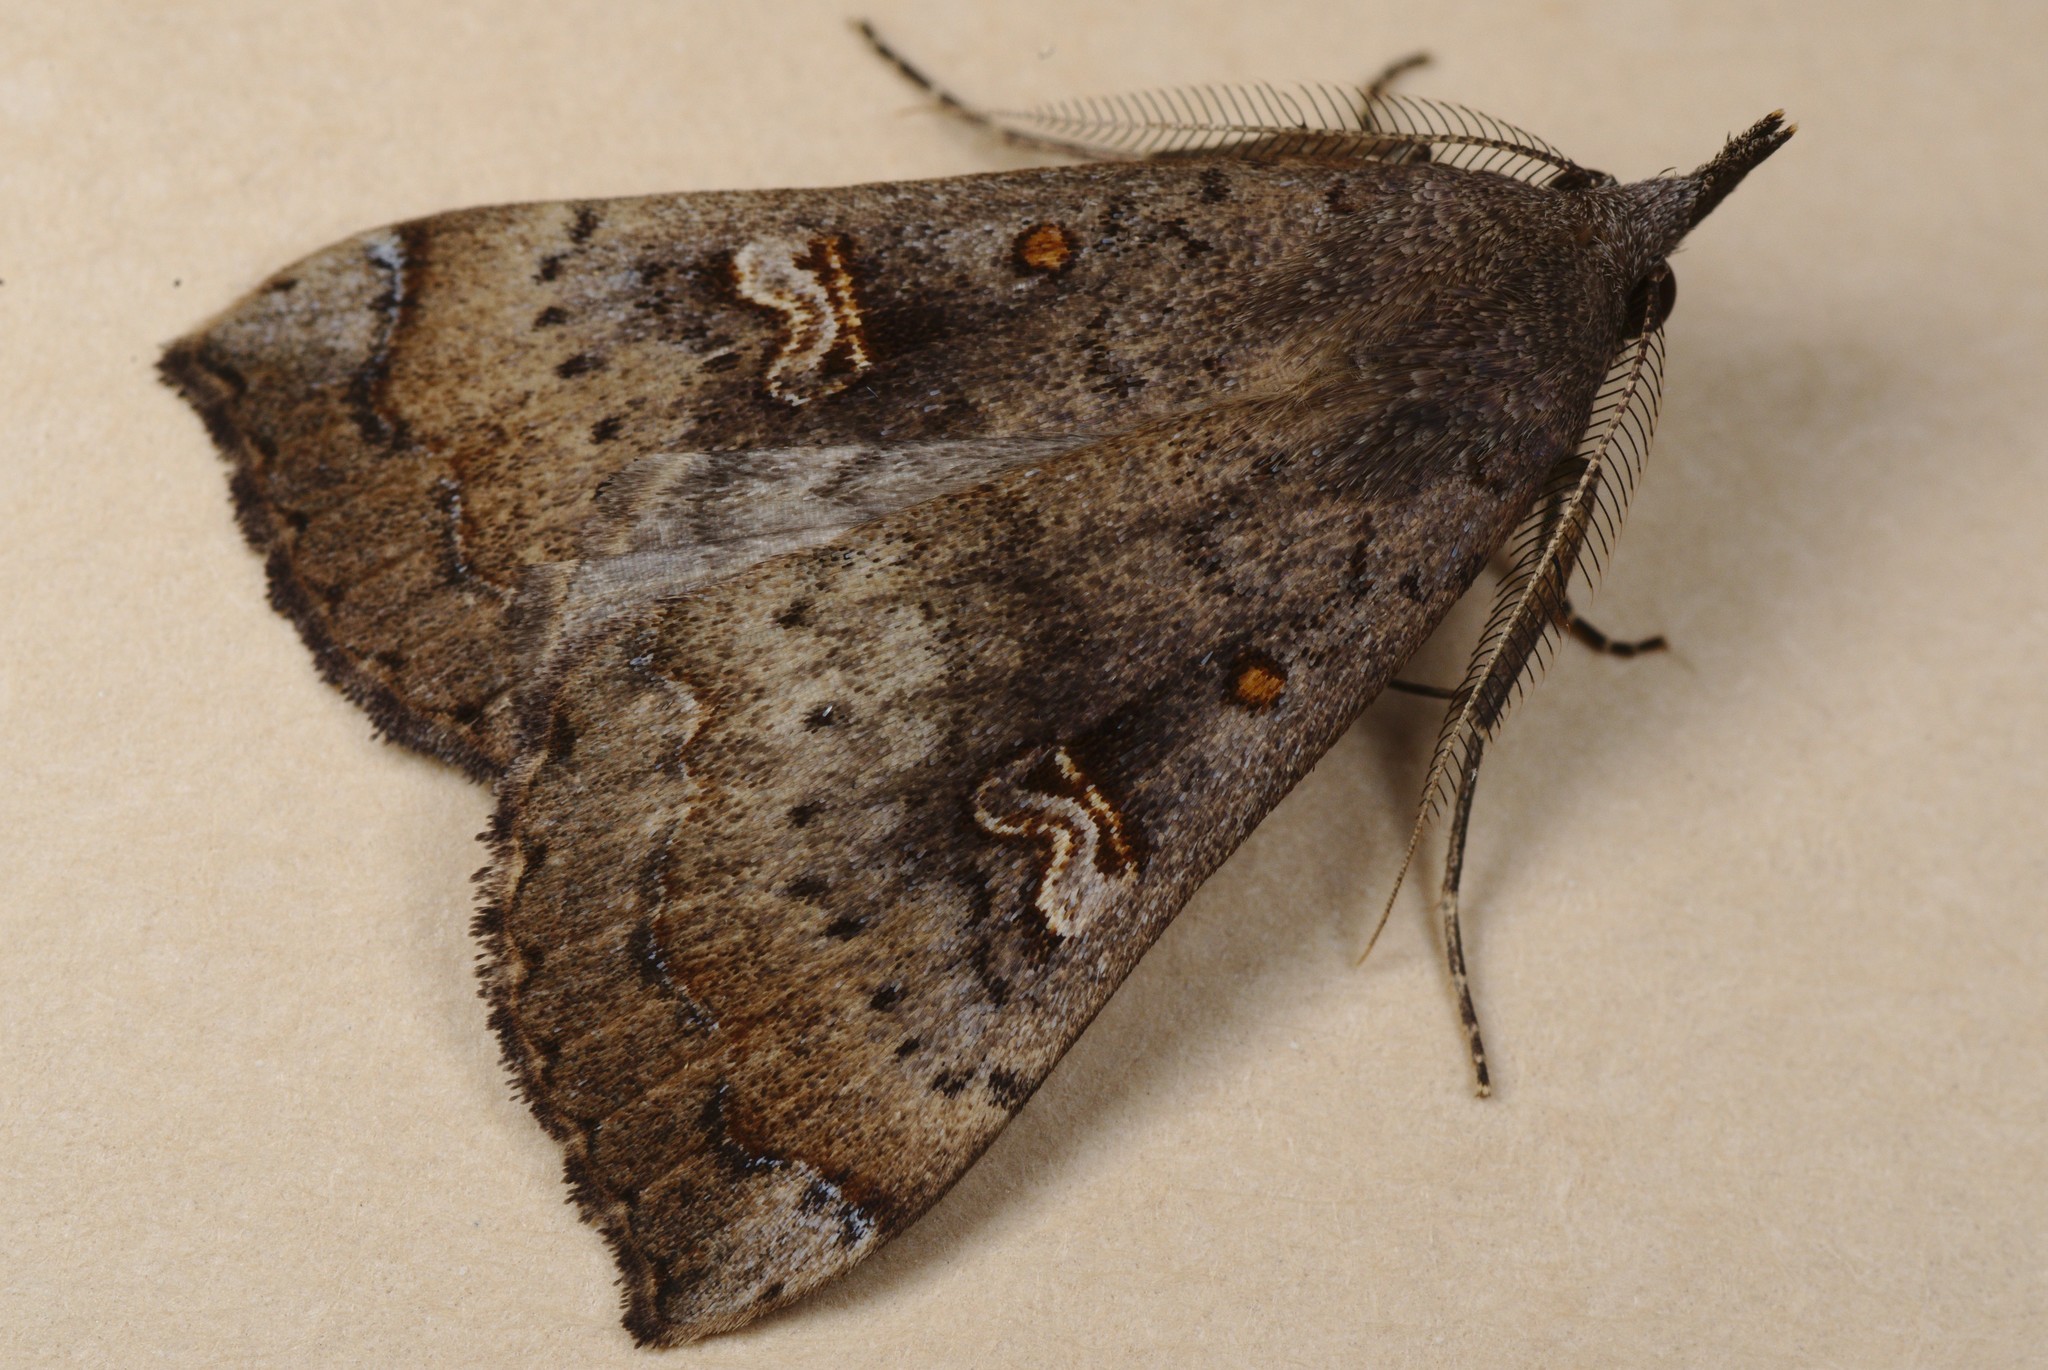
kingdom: Animalia
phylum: Arthropoda
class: Insecta
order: Lepidoptera
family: Erebidae
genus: Rhapsa
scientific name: Rhapsa scotosialis
